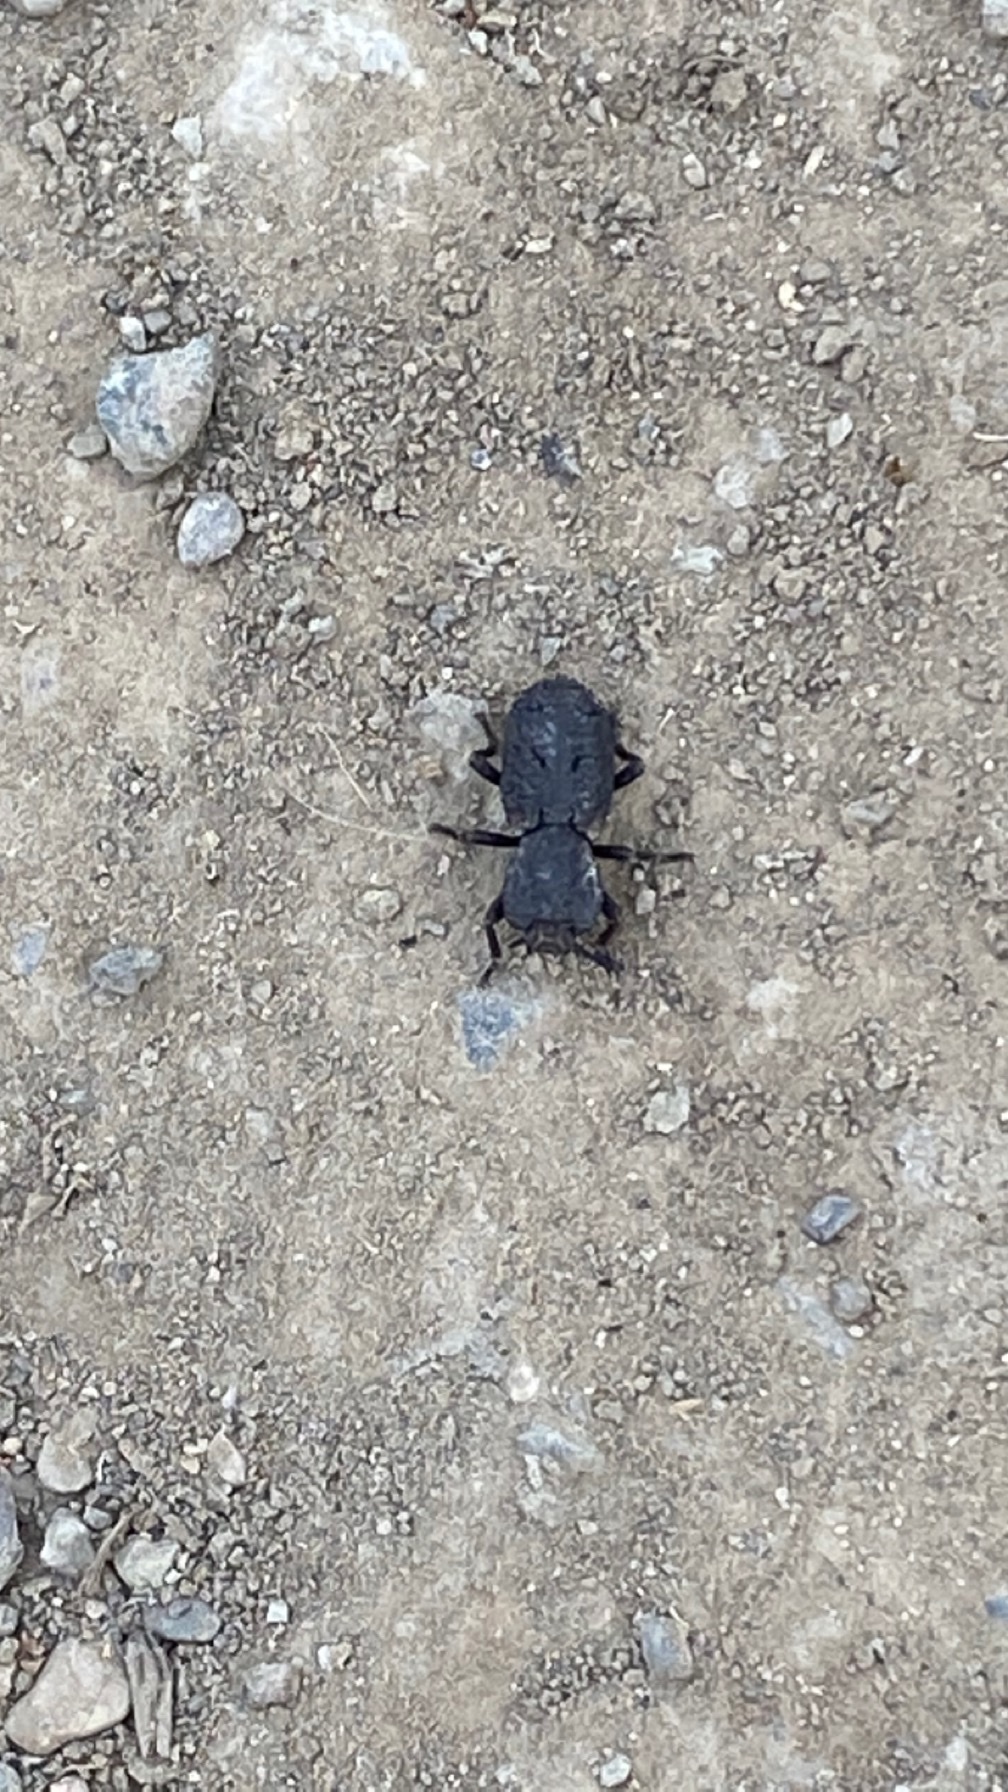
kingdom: Animalia
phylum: Arthropoda
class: Insecta
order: Coleoptera
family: Zopheridae
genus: Phloeodes
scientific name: Phloeodes diabolicus
